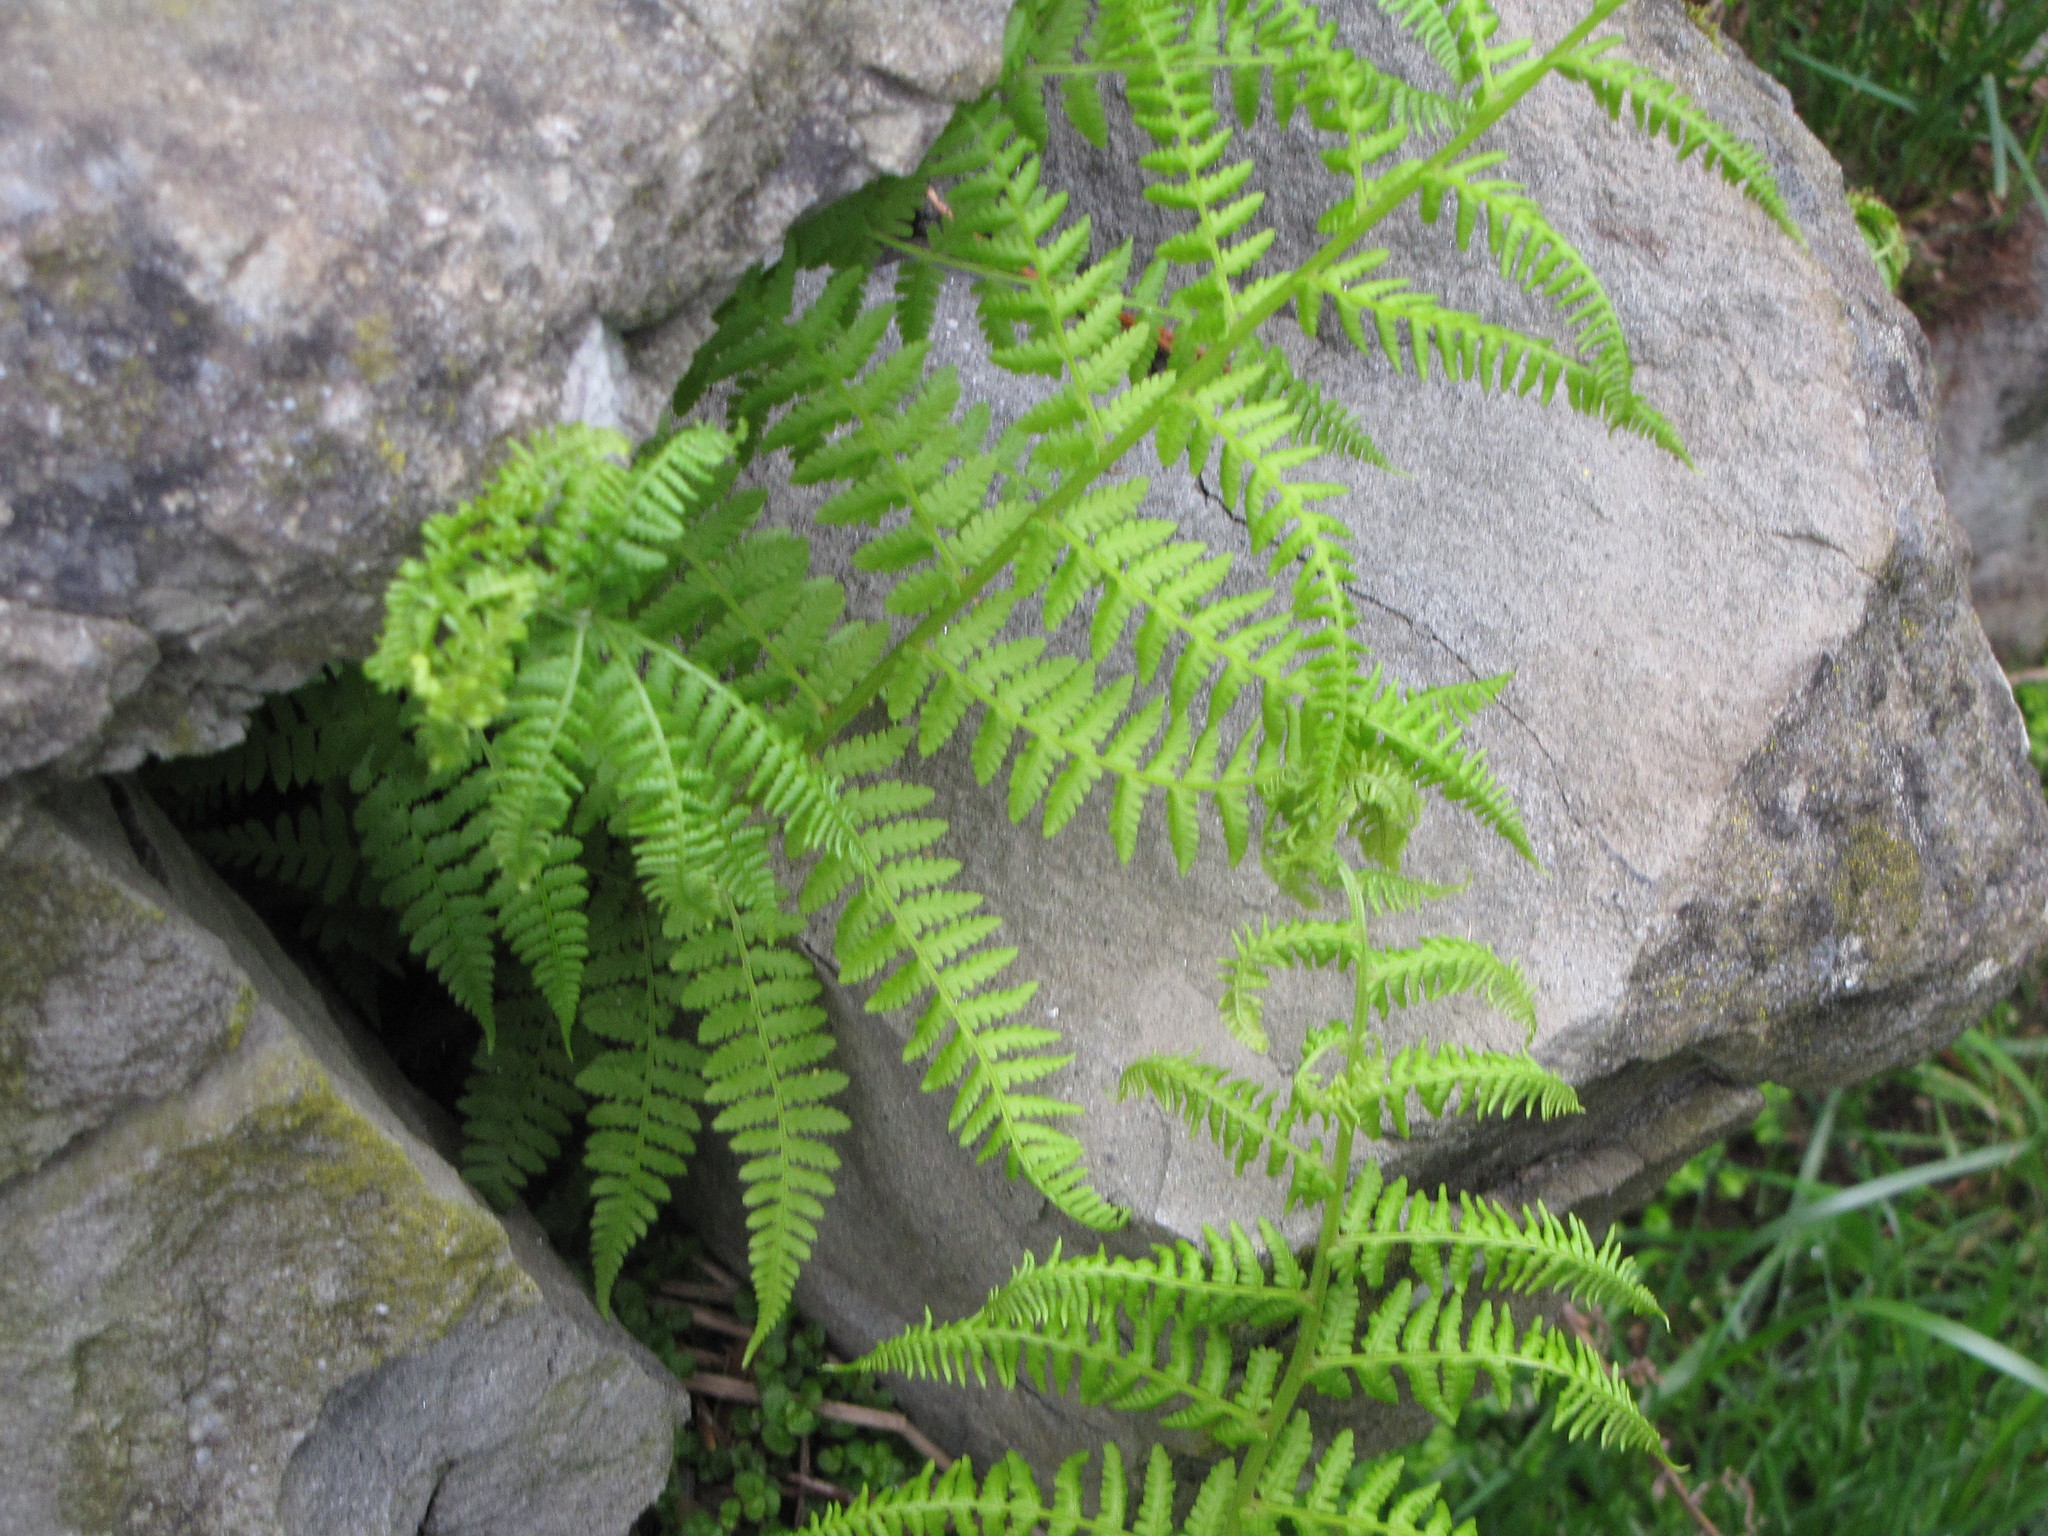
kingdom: Plantae
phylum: Tracheophyta
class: Polypodiopsida
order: Polypodiales
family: Athyriaceae
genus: Athyrium
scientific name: Athyrium filix-femina
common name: Lady fern
